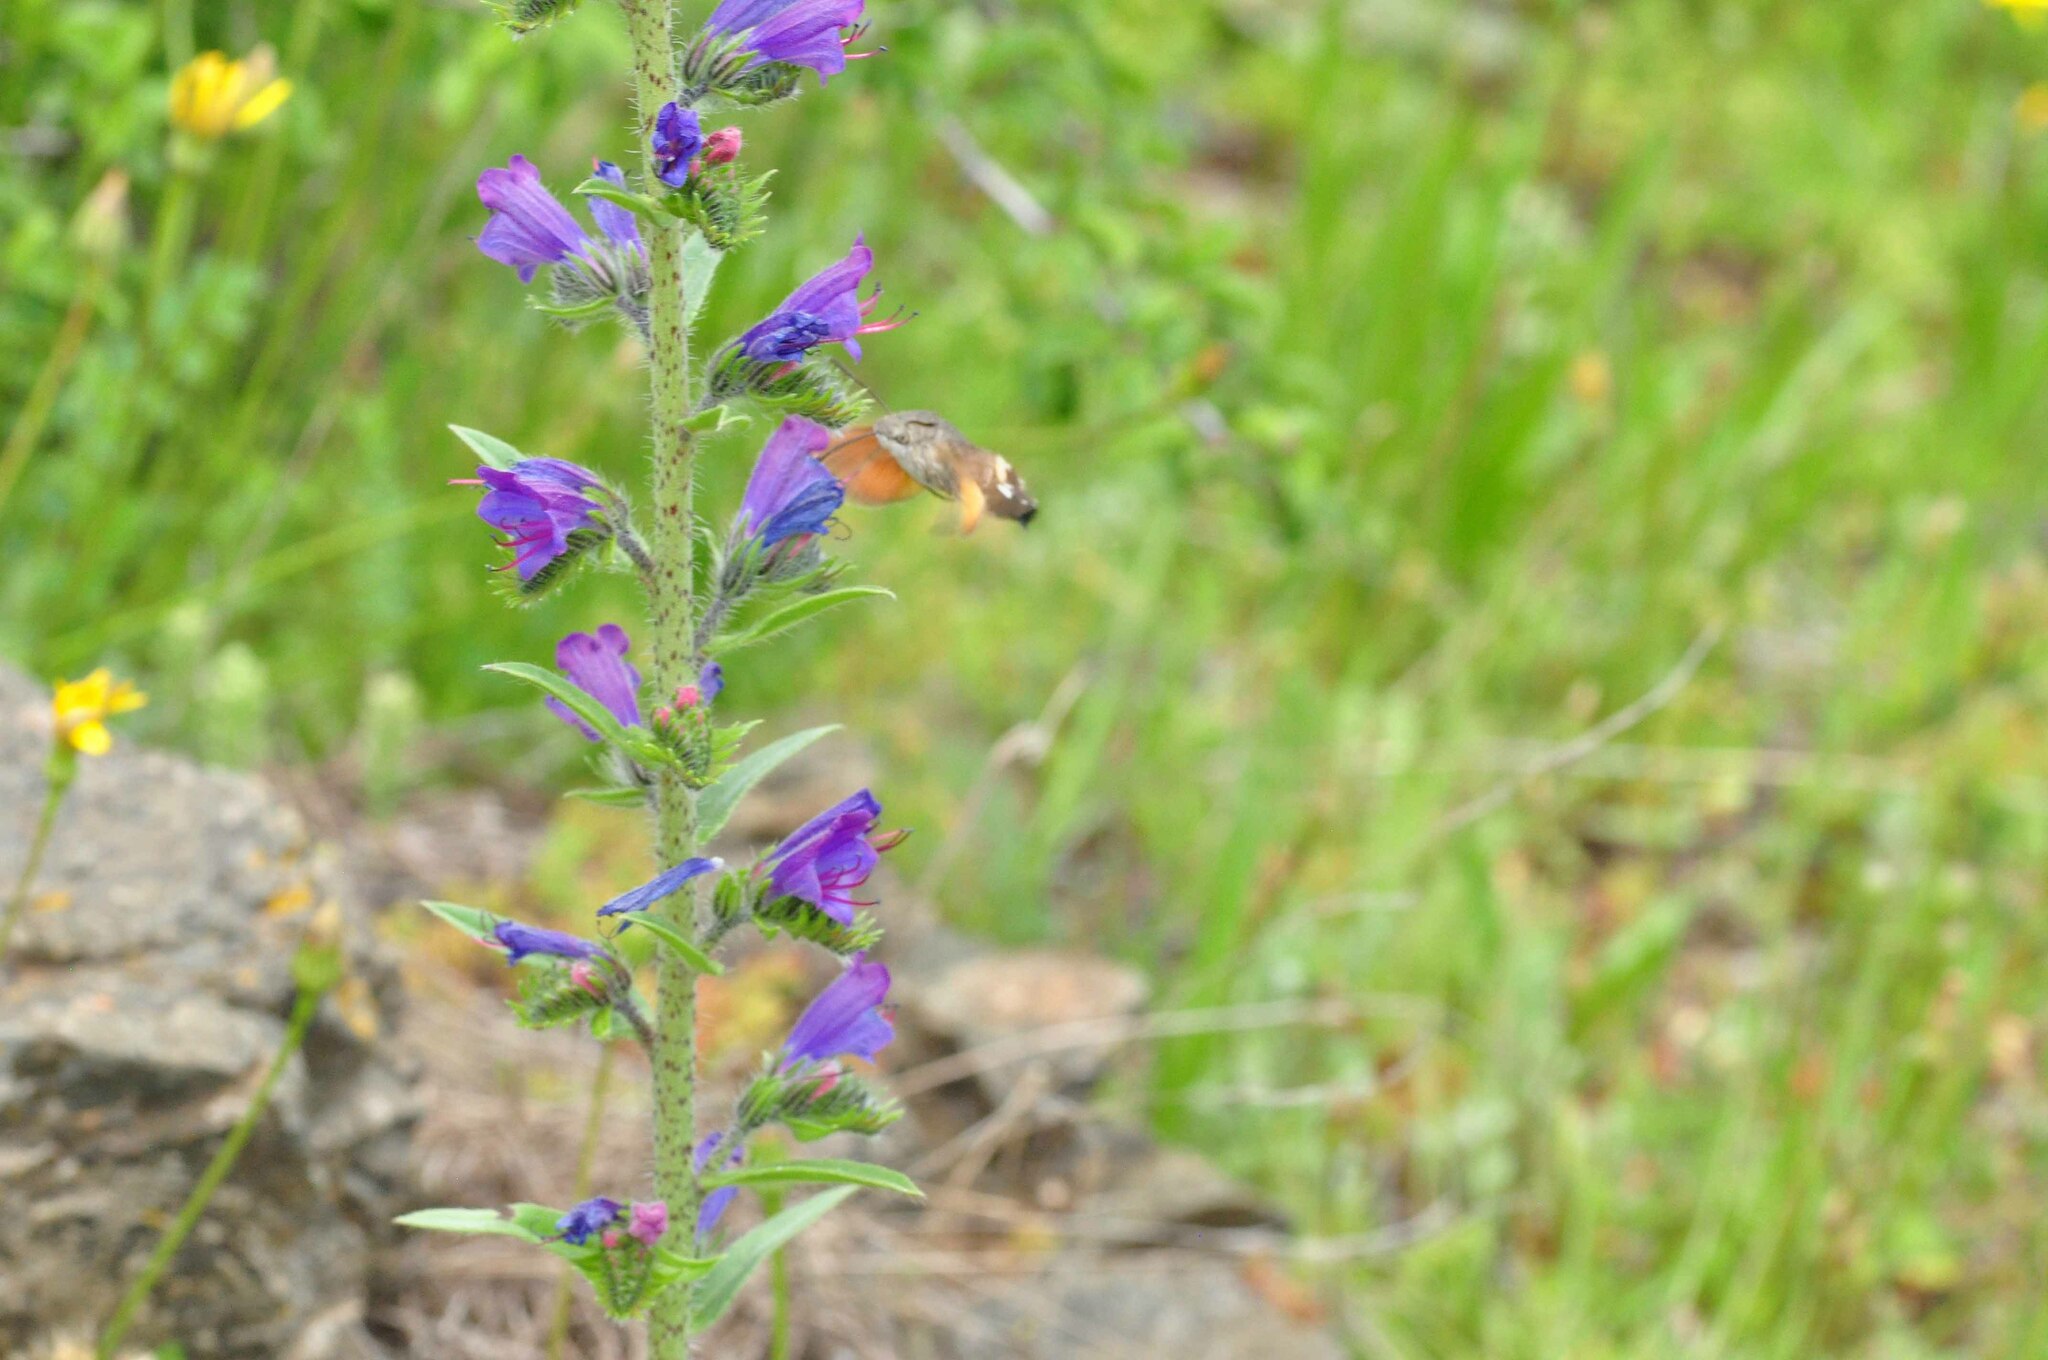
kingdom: Animalia
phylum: Arthropoda
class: Insecta
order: Lepidoptera
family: Sphingidae
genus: Macroglossum
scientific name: Macroglossum stellatarum
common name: Humming-bird hawk-moth
